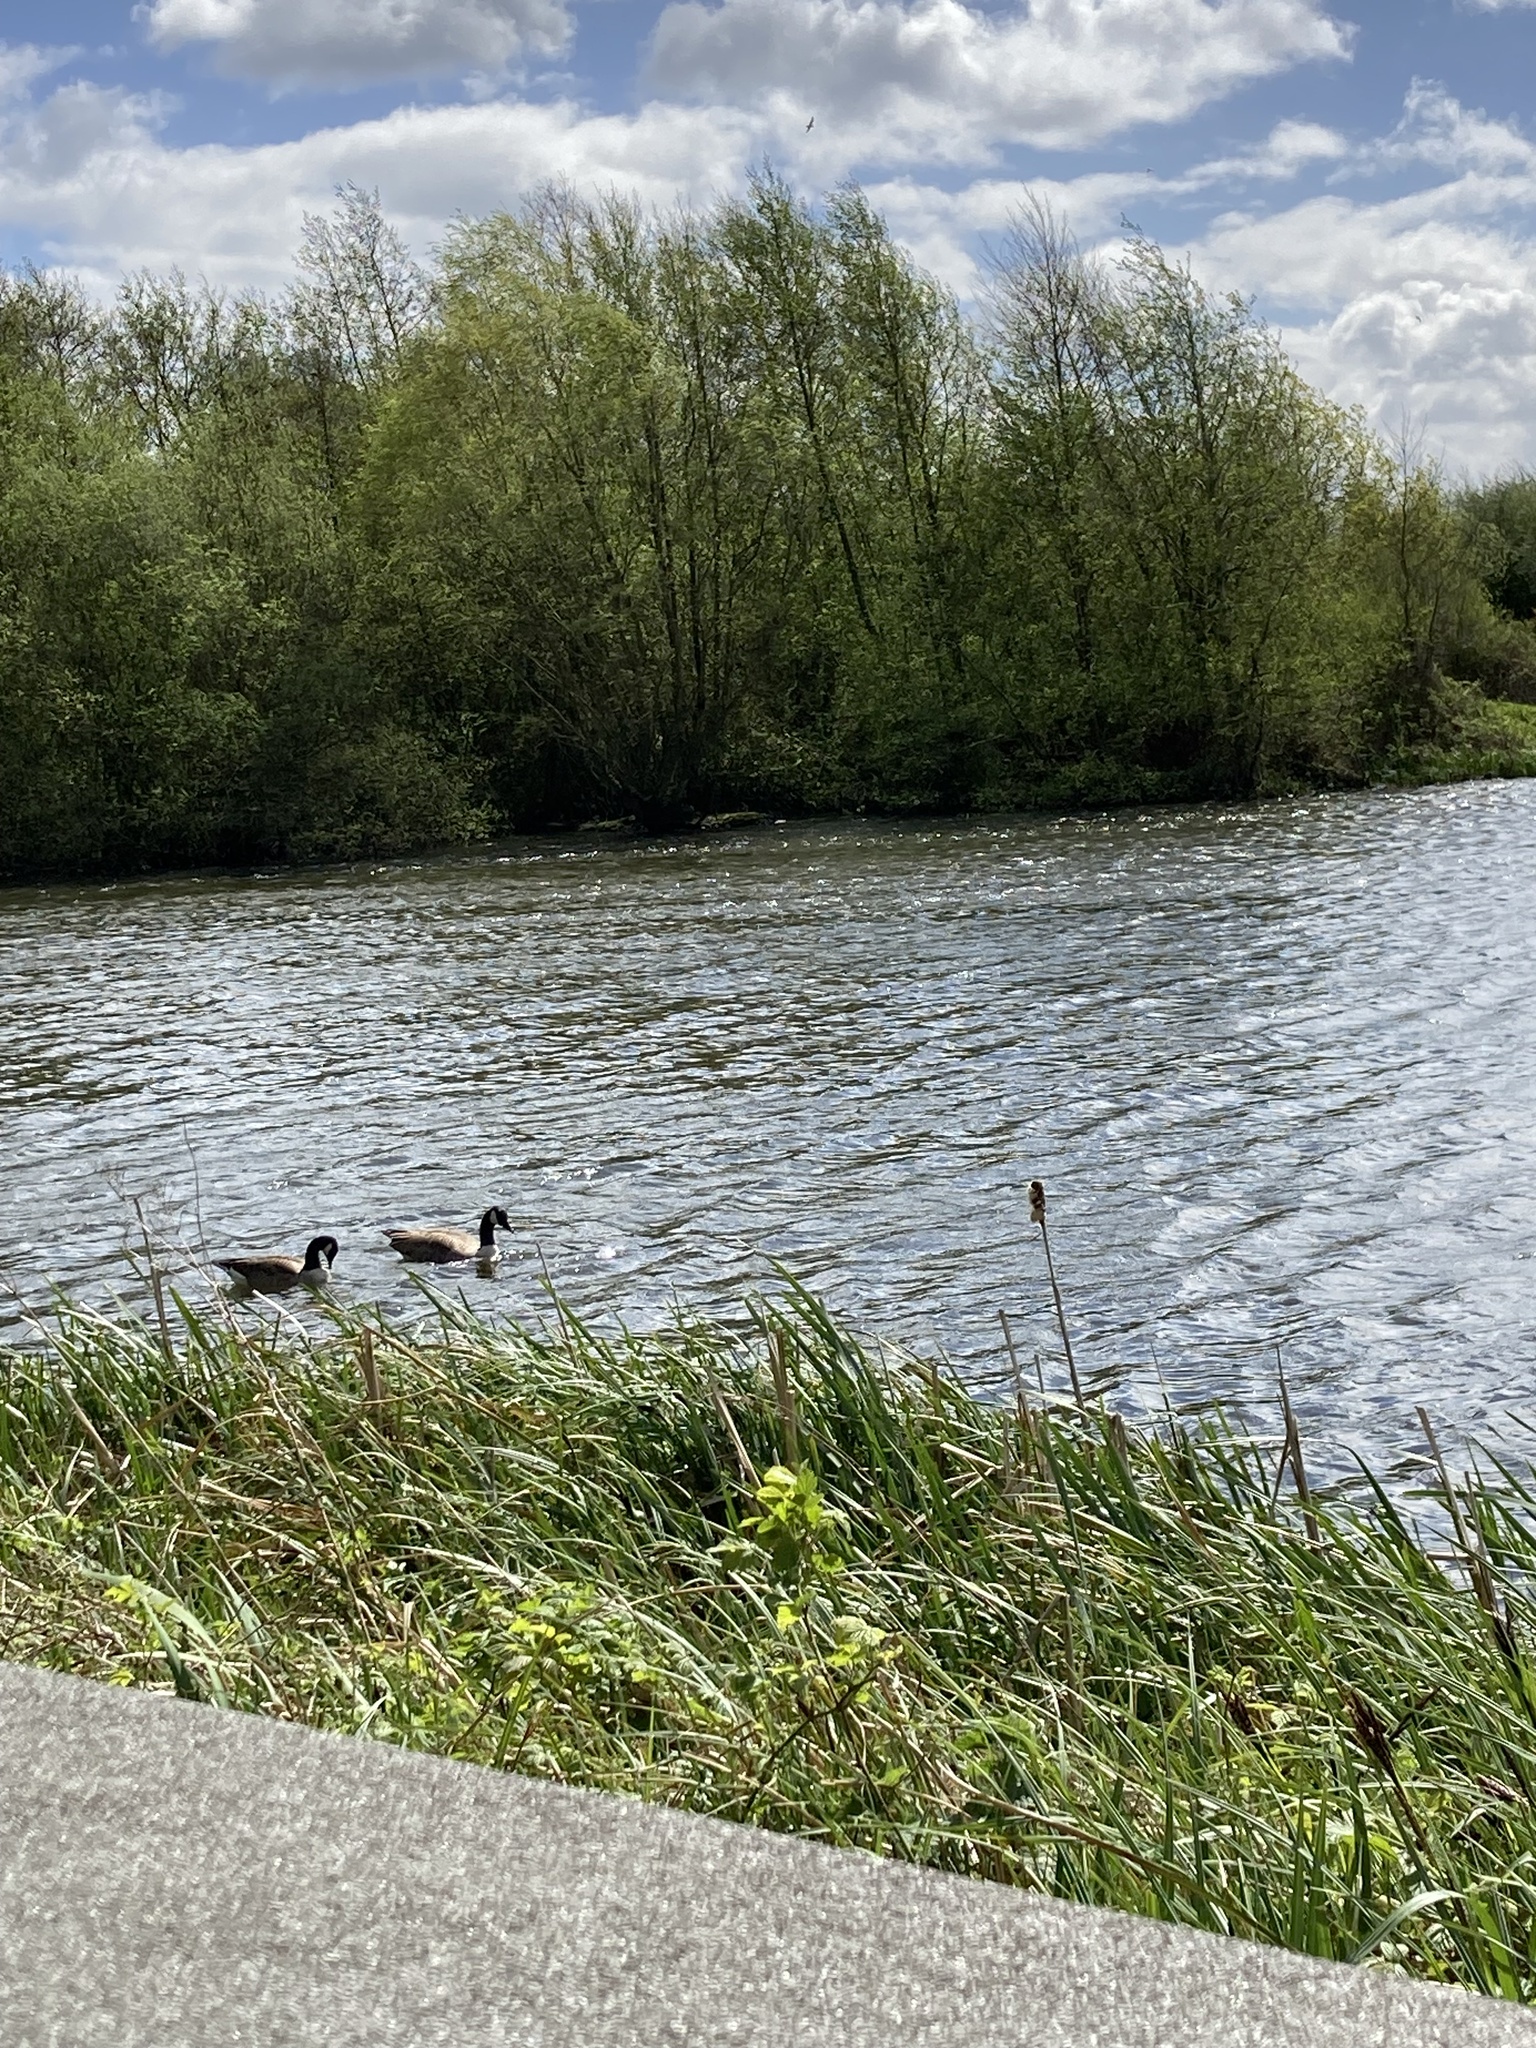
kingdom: Animalia
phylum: Chordata
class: Aves
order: Anseriformes
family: Anatidae
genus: Branta
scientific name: Branta canadensis
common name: Canada goose
